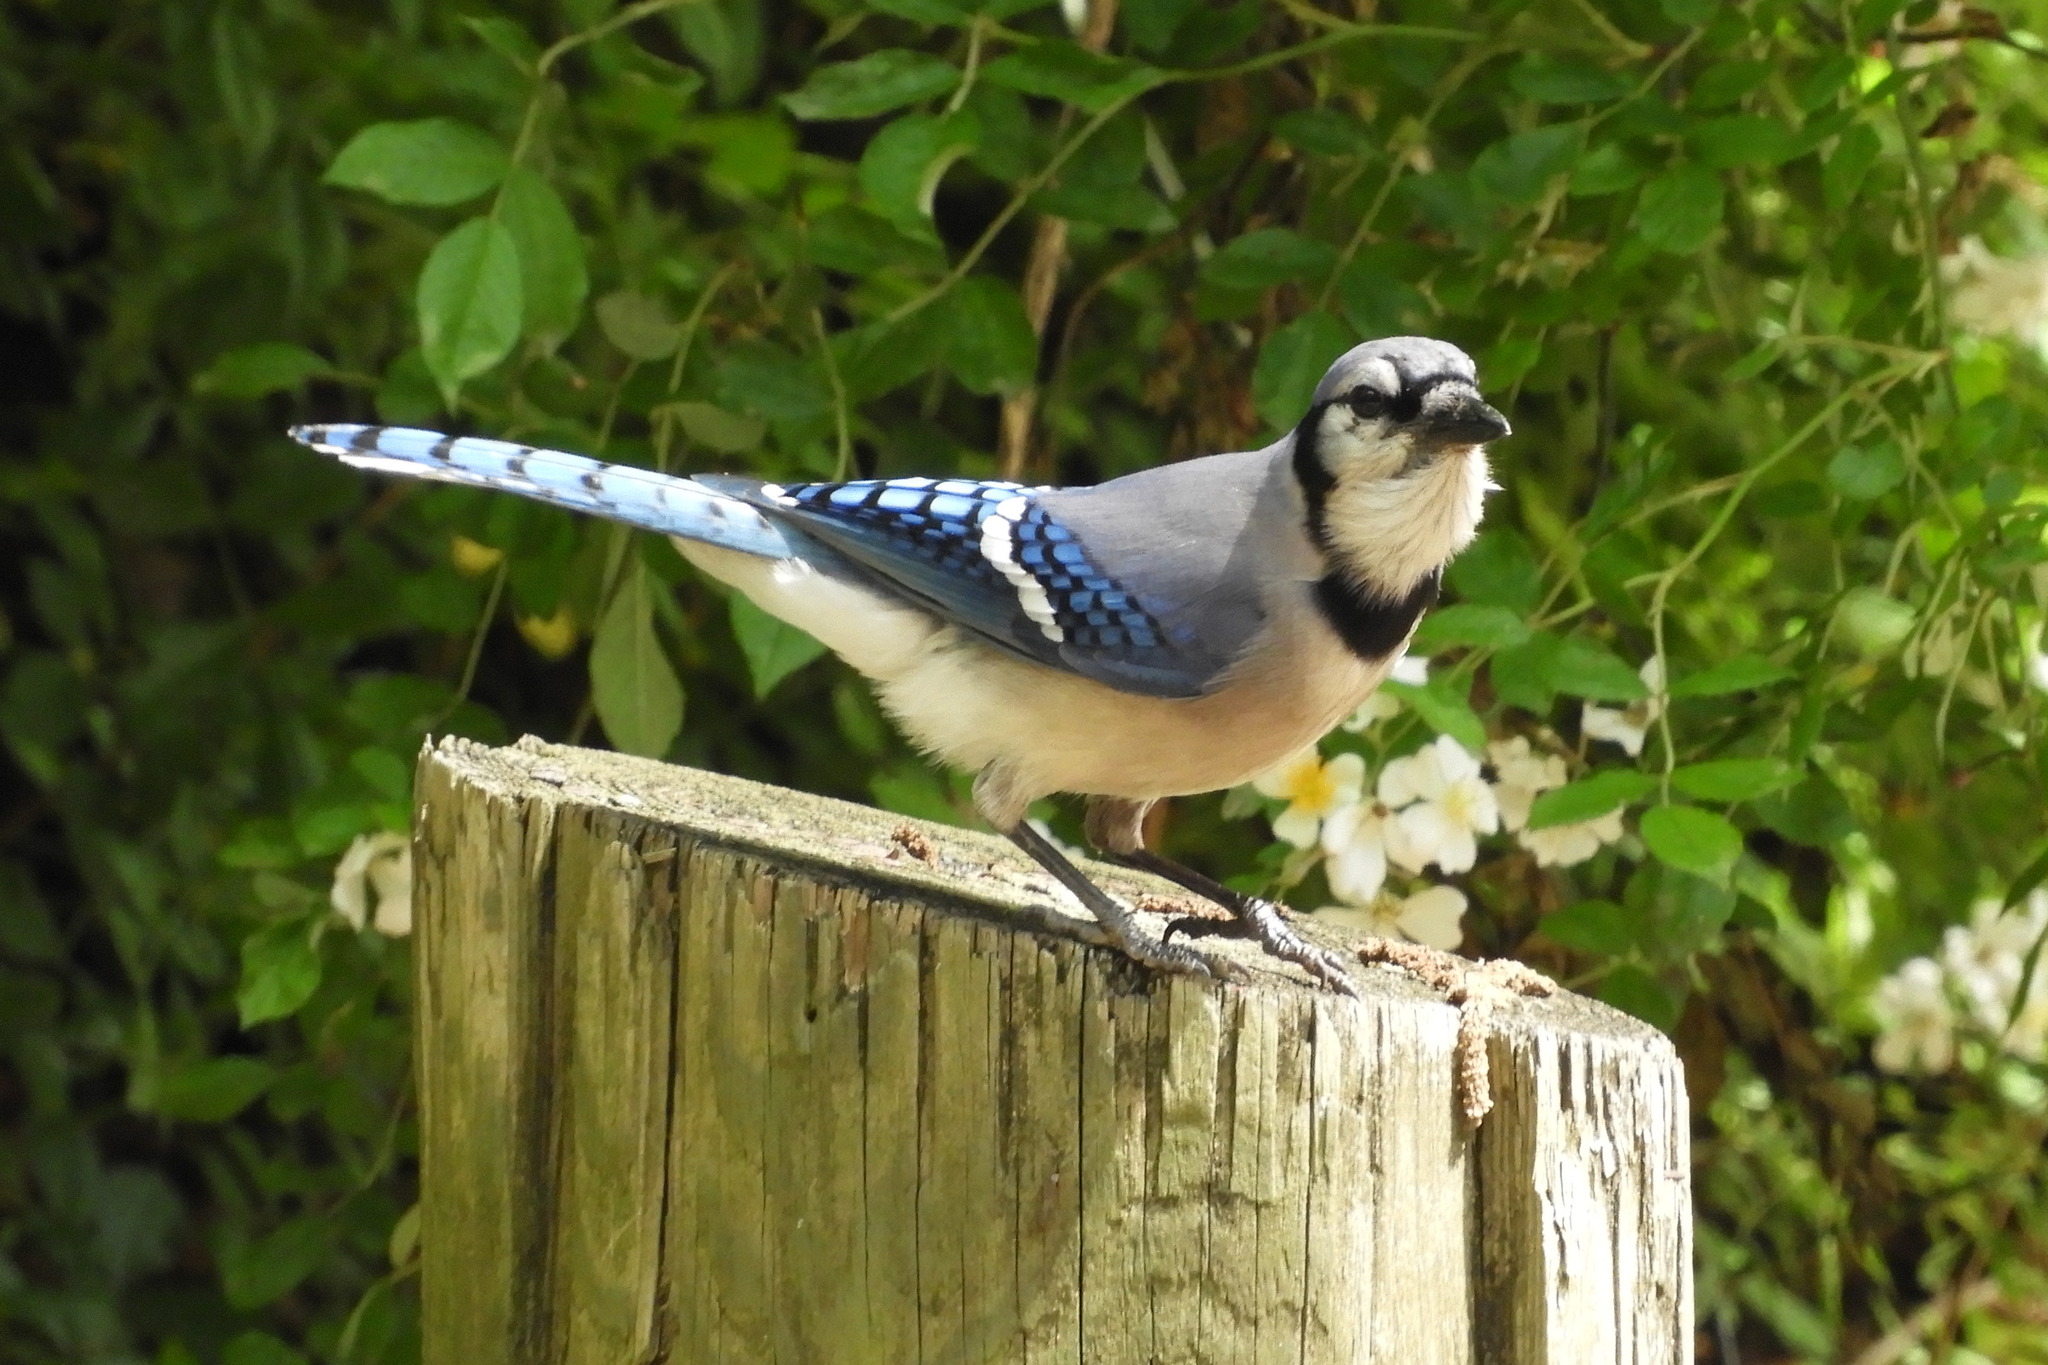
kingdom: Animalia
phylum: Chordata
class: Aves
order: Passeriformes
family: Corvidae
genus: Cyanocitta
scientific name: Cyanocitta cristata
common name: Blue jay
